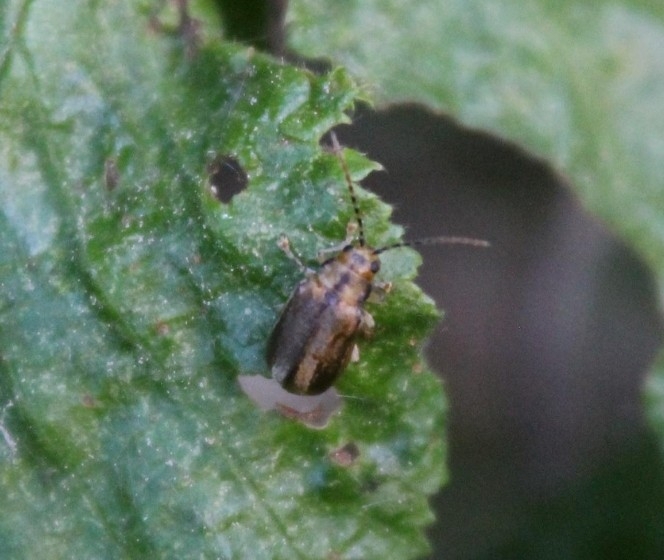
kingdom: Animalia
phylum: Arthropoda
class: Insecta
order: Coleoptera
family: Chrysomelidae
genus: Pyrrhalta
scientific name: Pyrrhalta viburni
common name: Guelder-rose leaf beetle
